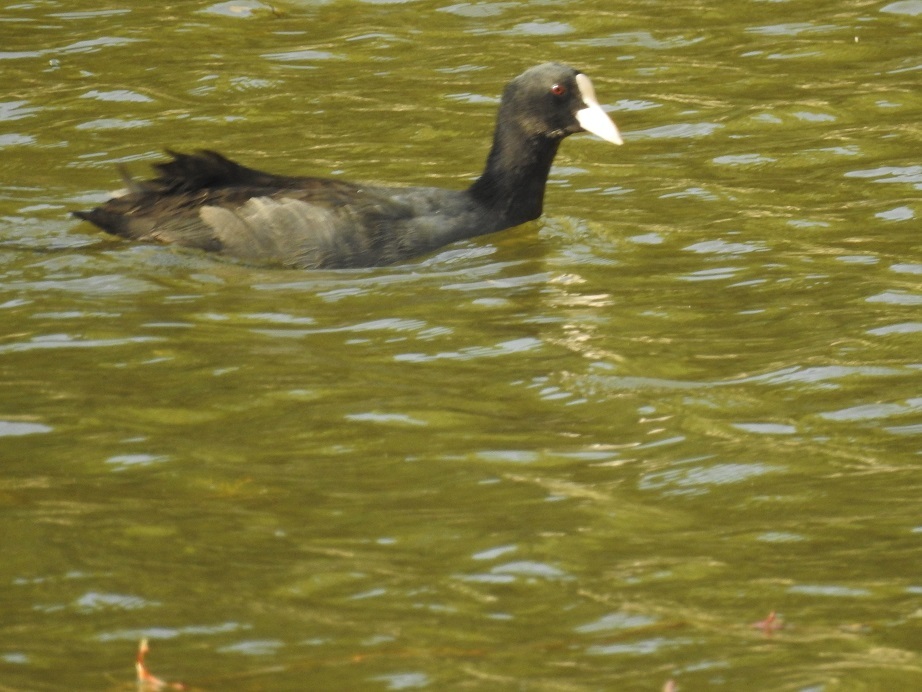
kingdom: Animalia
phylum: Chordata
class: Aves
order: Gruiformes
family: Rallidae
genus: Fulica
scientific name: Fulica atra
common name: Eurasian coot
